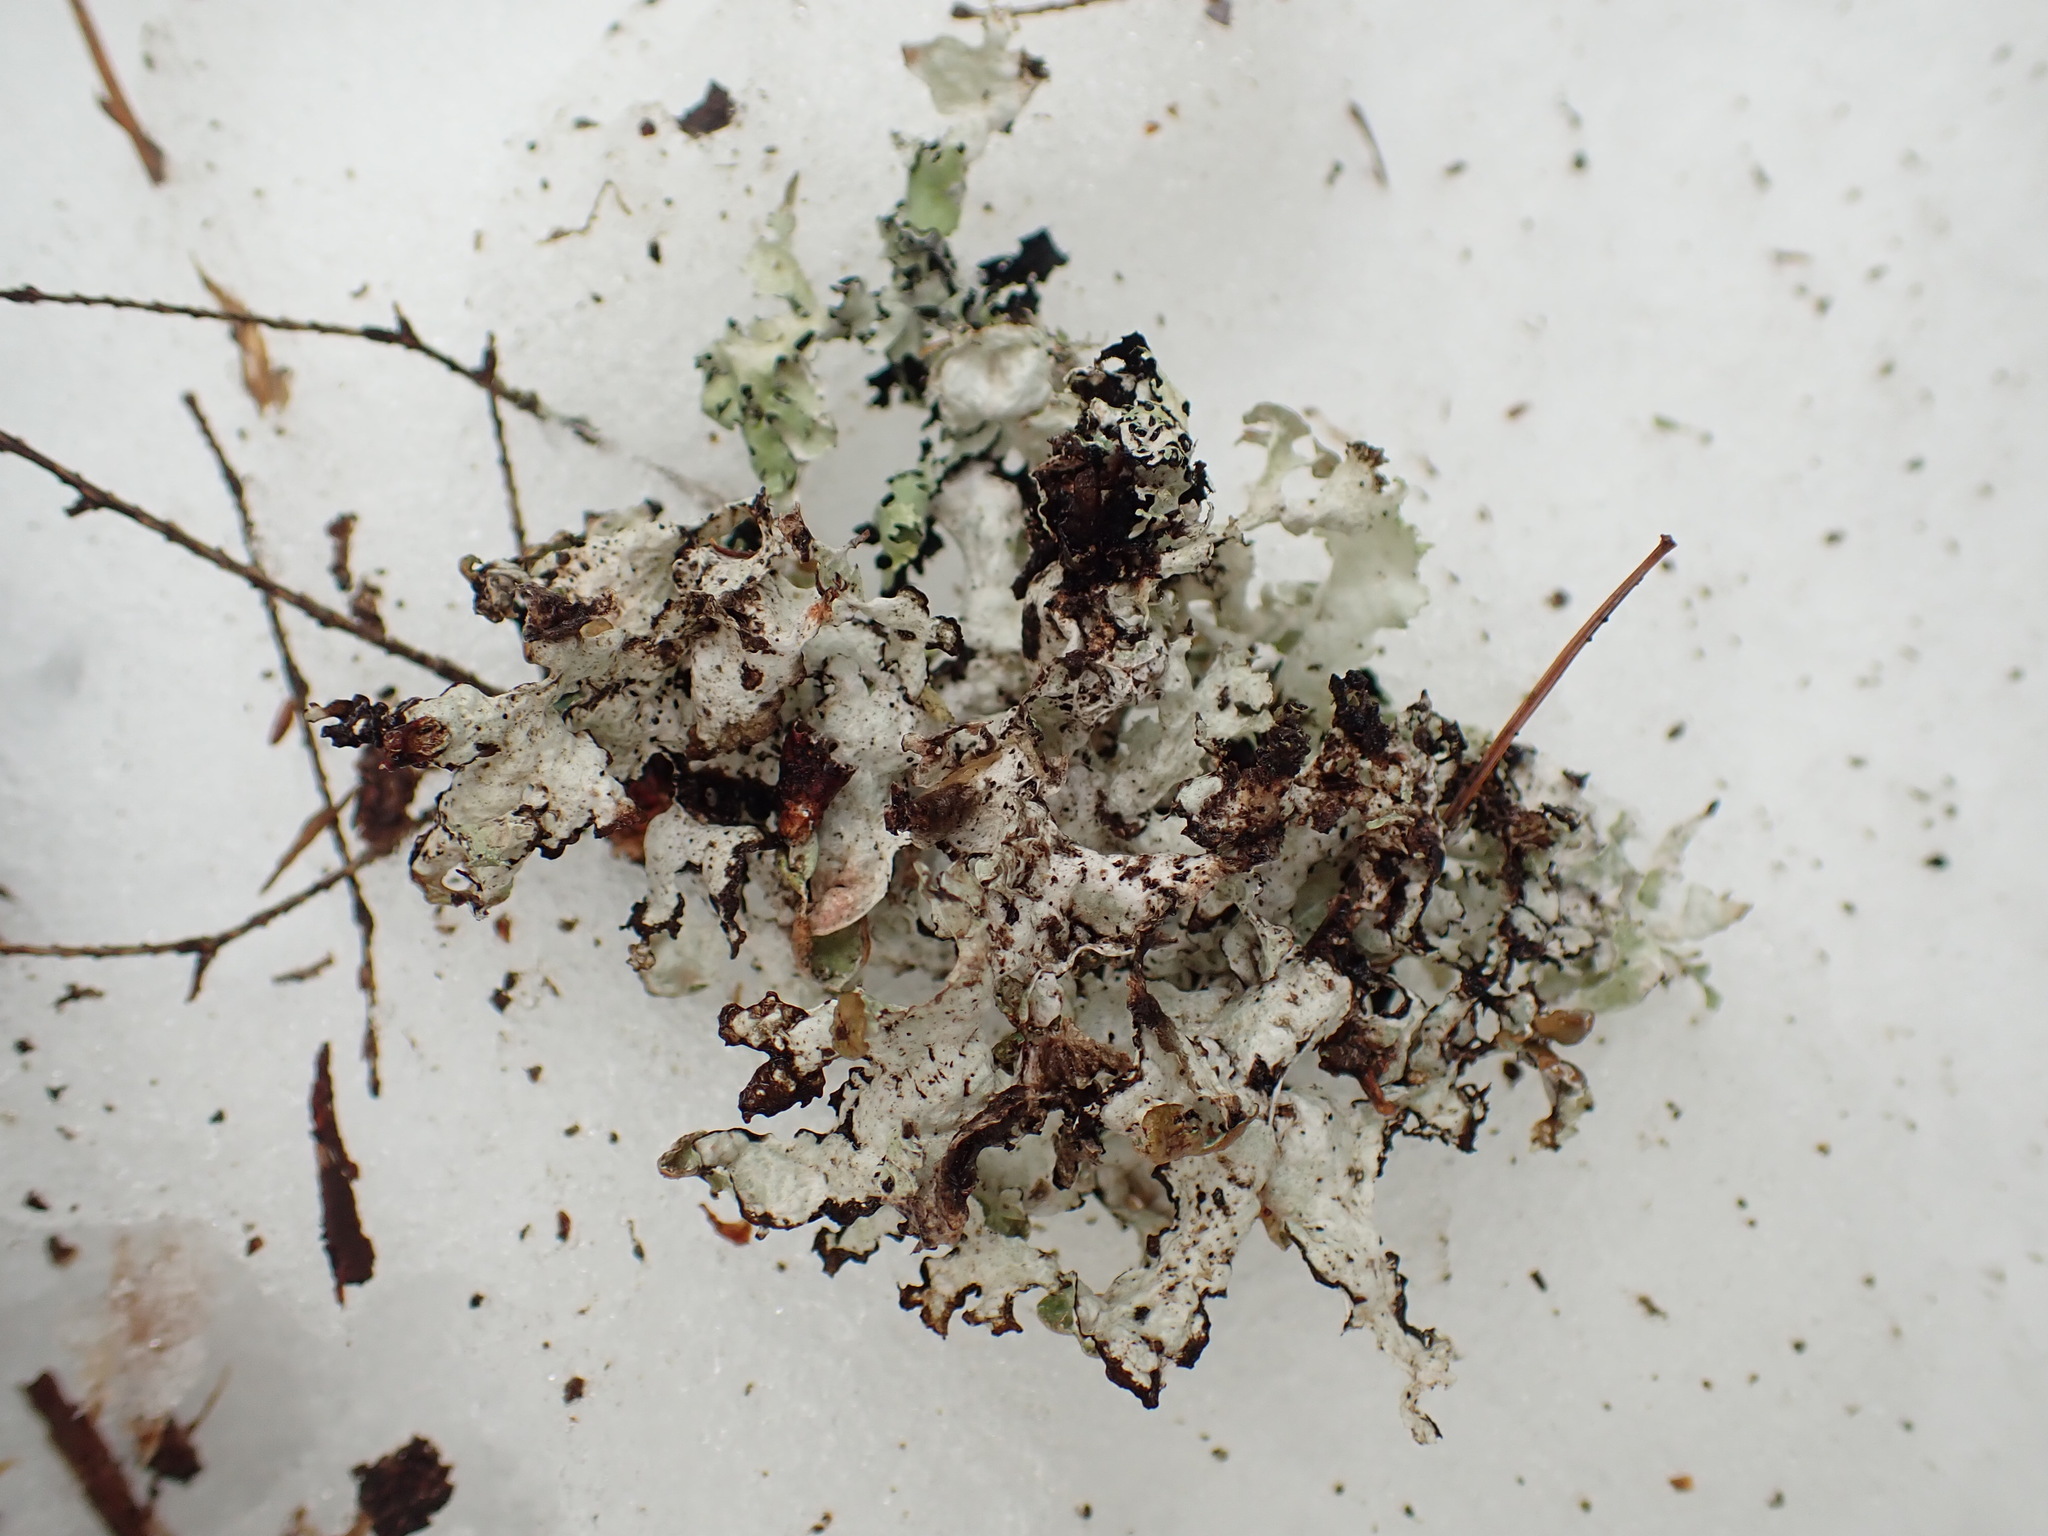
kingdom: Fungi
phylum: Ascomycota
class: Lecanoromycetes
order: Lecanorales
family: Parmeliaceae
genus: Platismatia
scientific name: Platismatia tuckermanii
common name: Crumpled rag lichen
